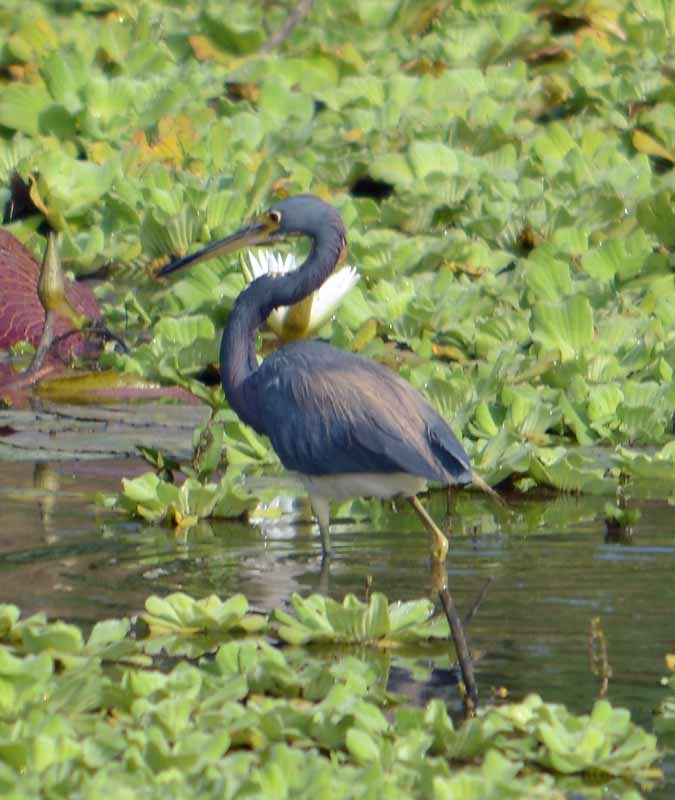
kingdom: Animalia
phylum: Chordata
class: Aves
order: Pelecaniformes
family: Ardeidae
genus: Egretta
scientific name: Egretta tricolor
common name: Tricolored heron
